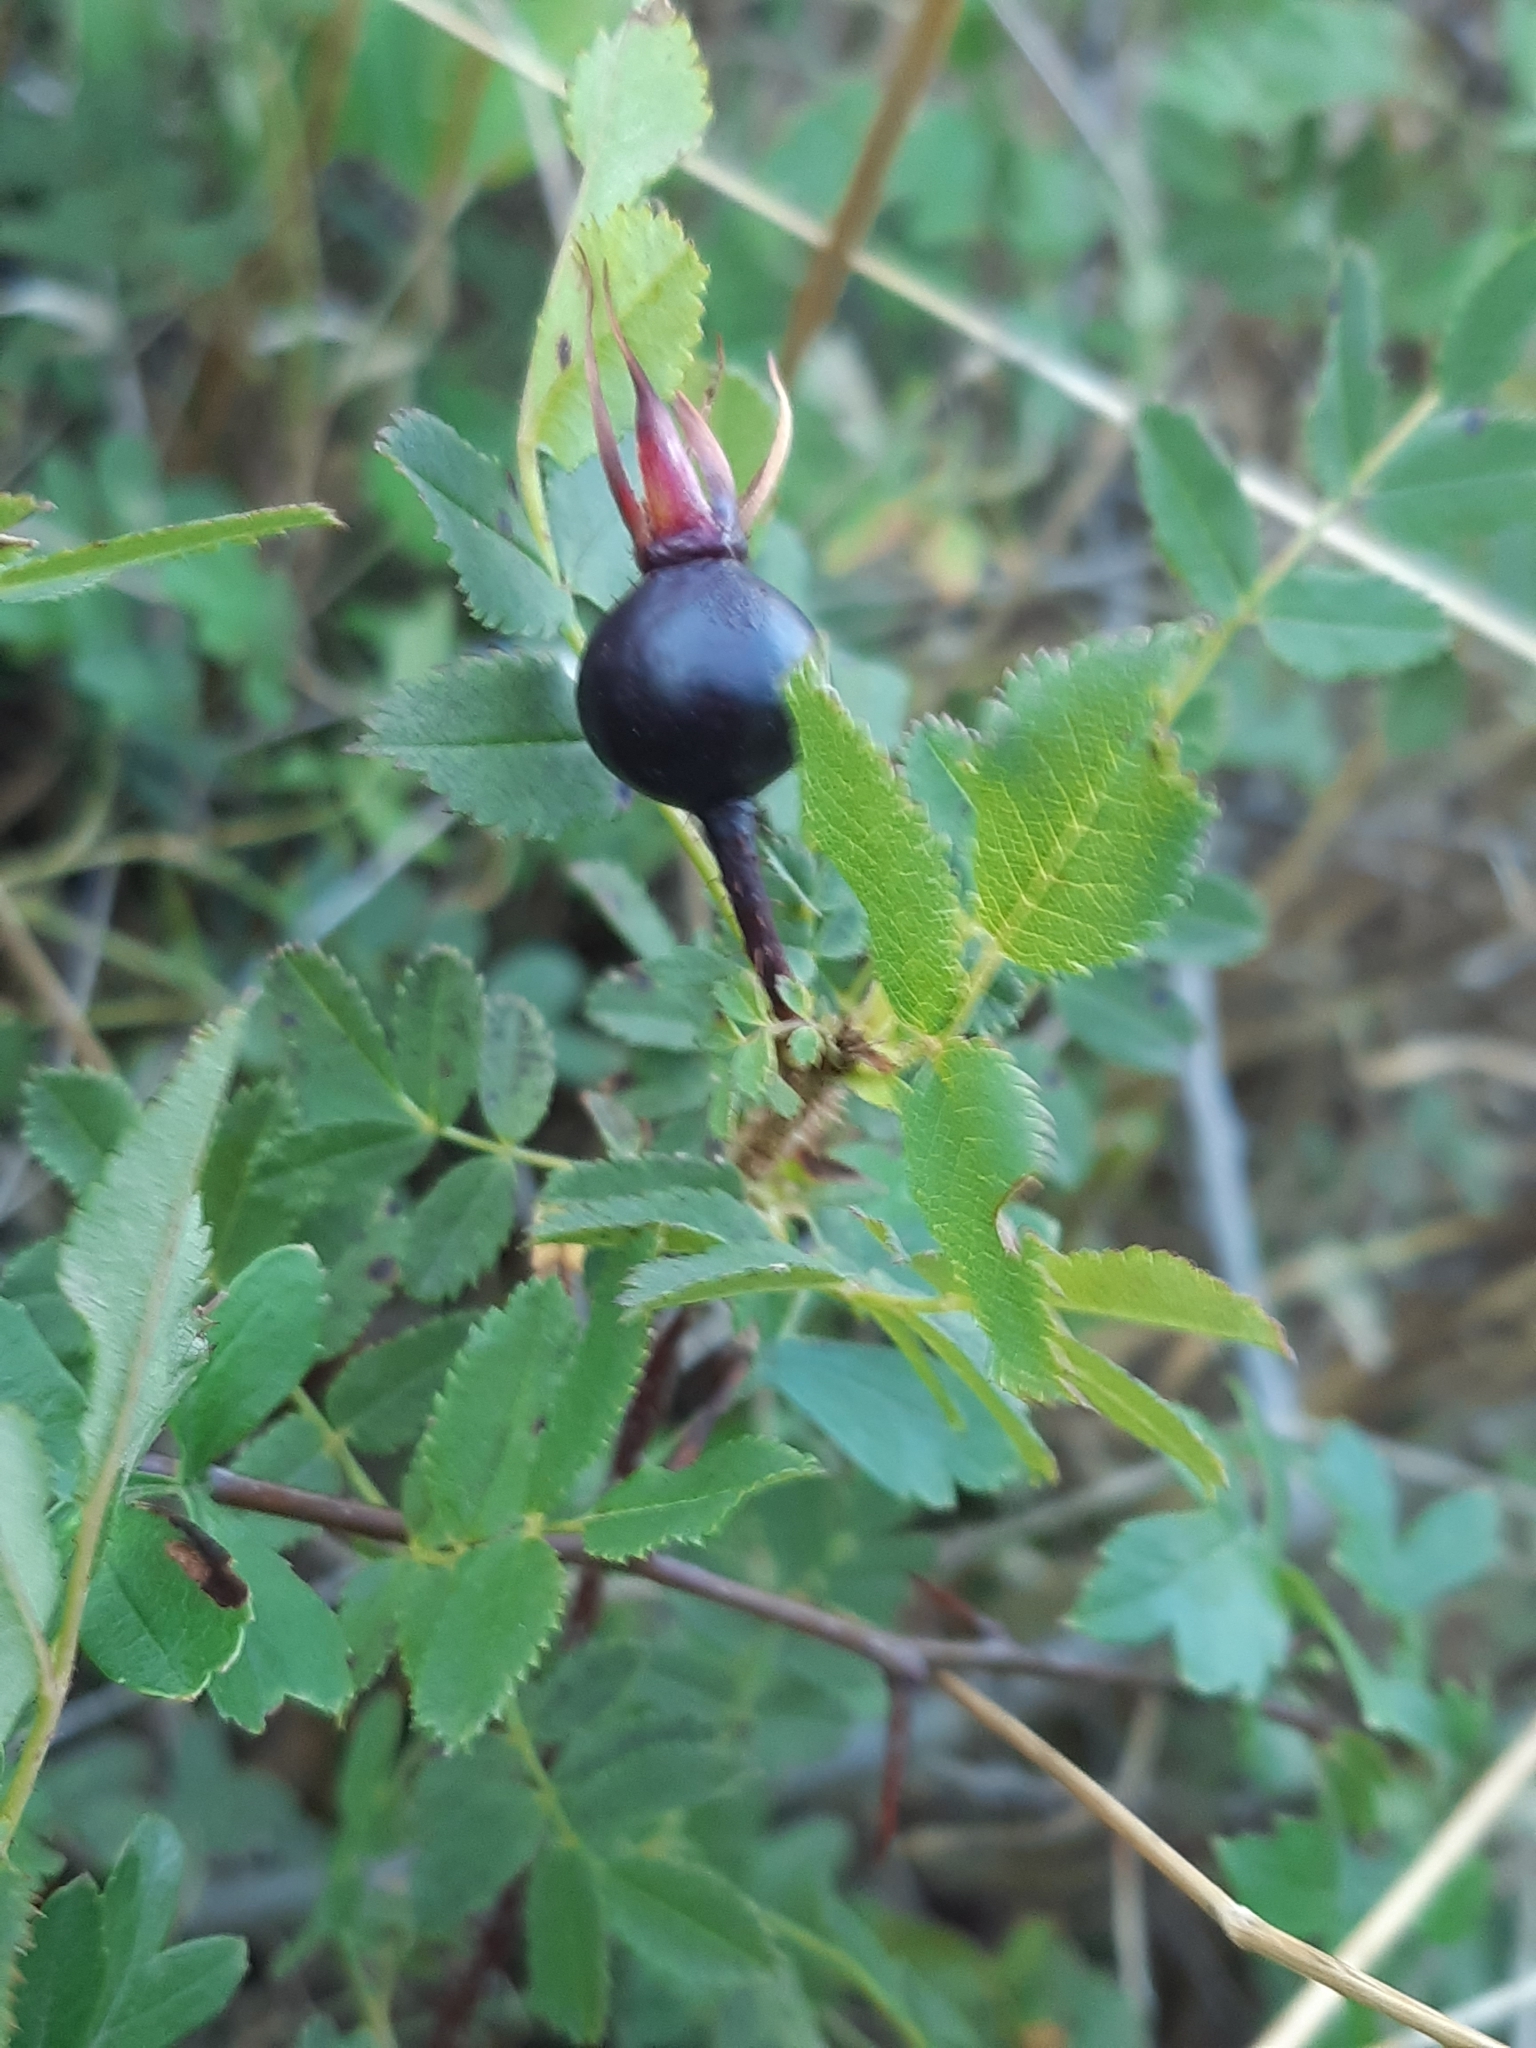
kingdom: Plantae
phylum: Tracheophyta
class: Magnoliopsida
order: Rosales
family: Rosaceae
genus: Rosa
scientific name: Rosa spinosissima
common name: Burnet rose
